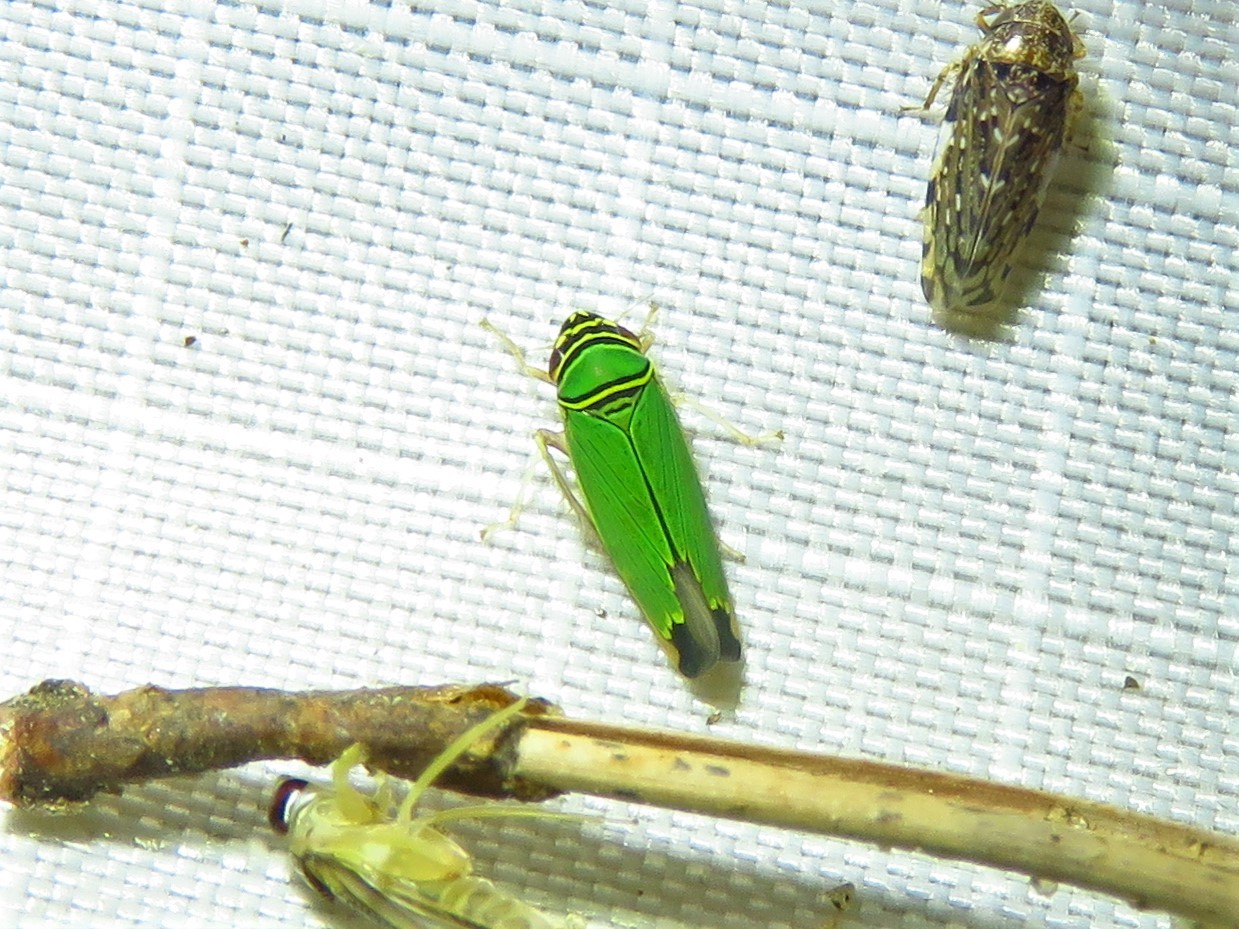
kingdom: Animalia
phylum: Arthropoda
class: Insecta
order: Hemiptera
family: Cicadellidae
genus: Tylozygus
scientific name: Tylozygus geometricus
